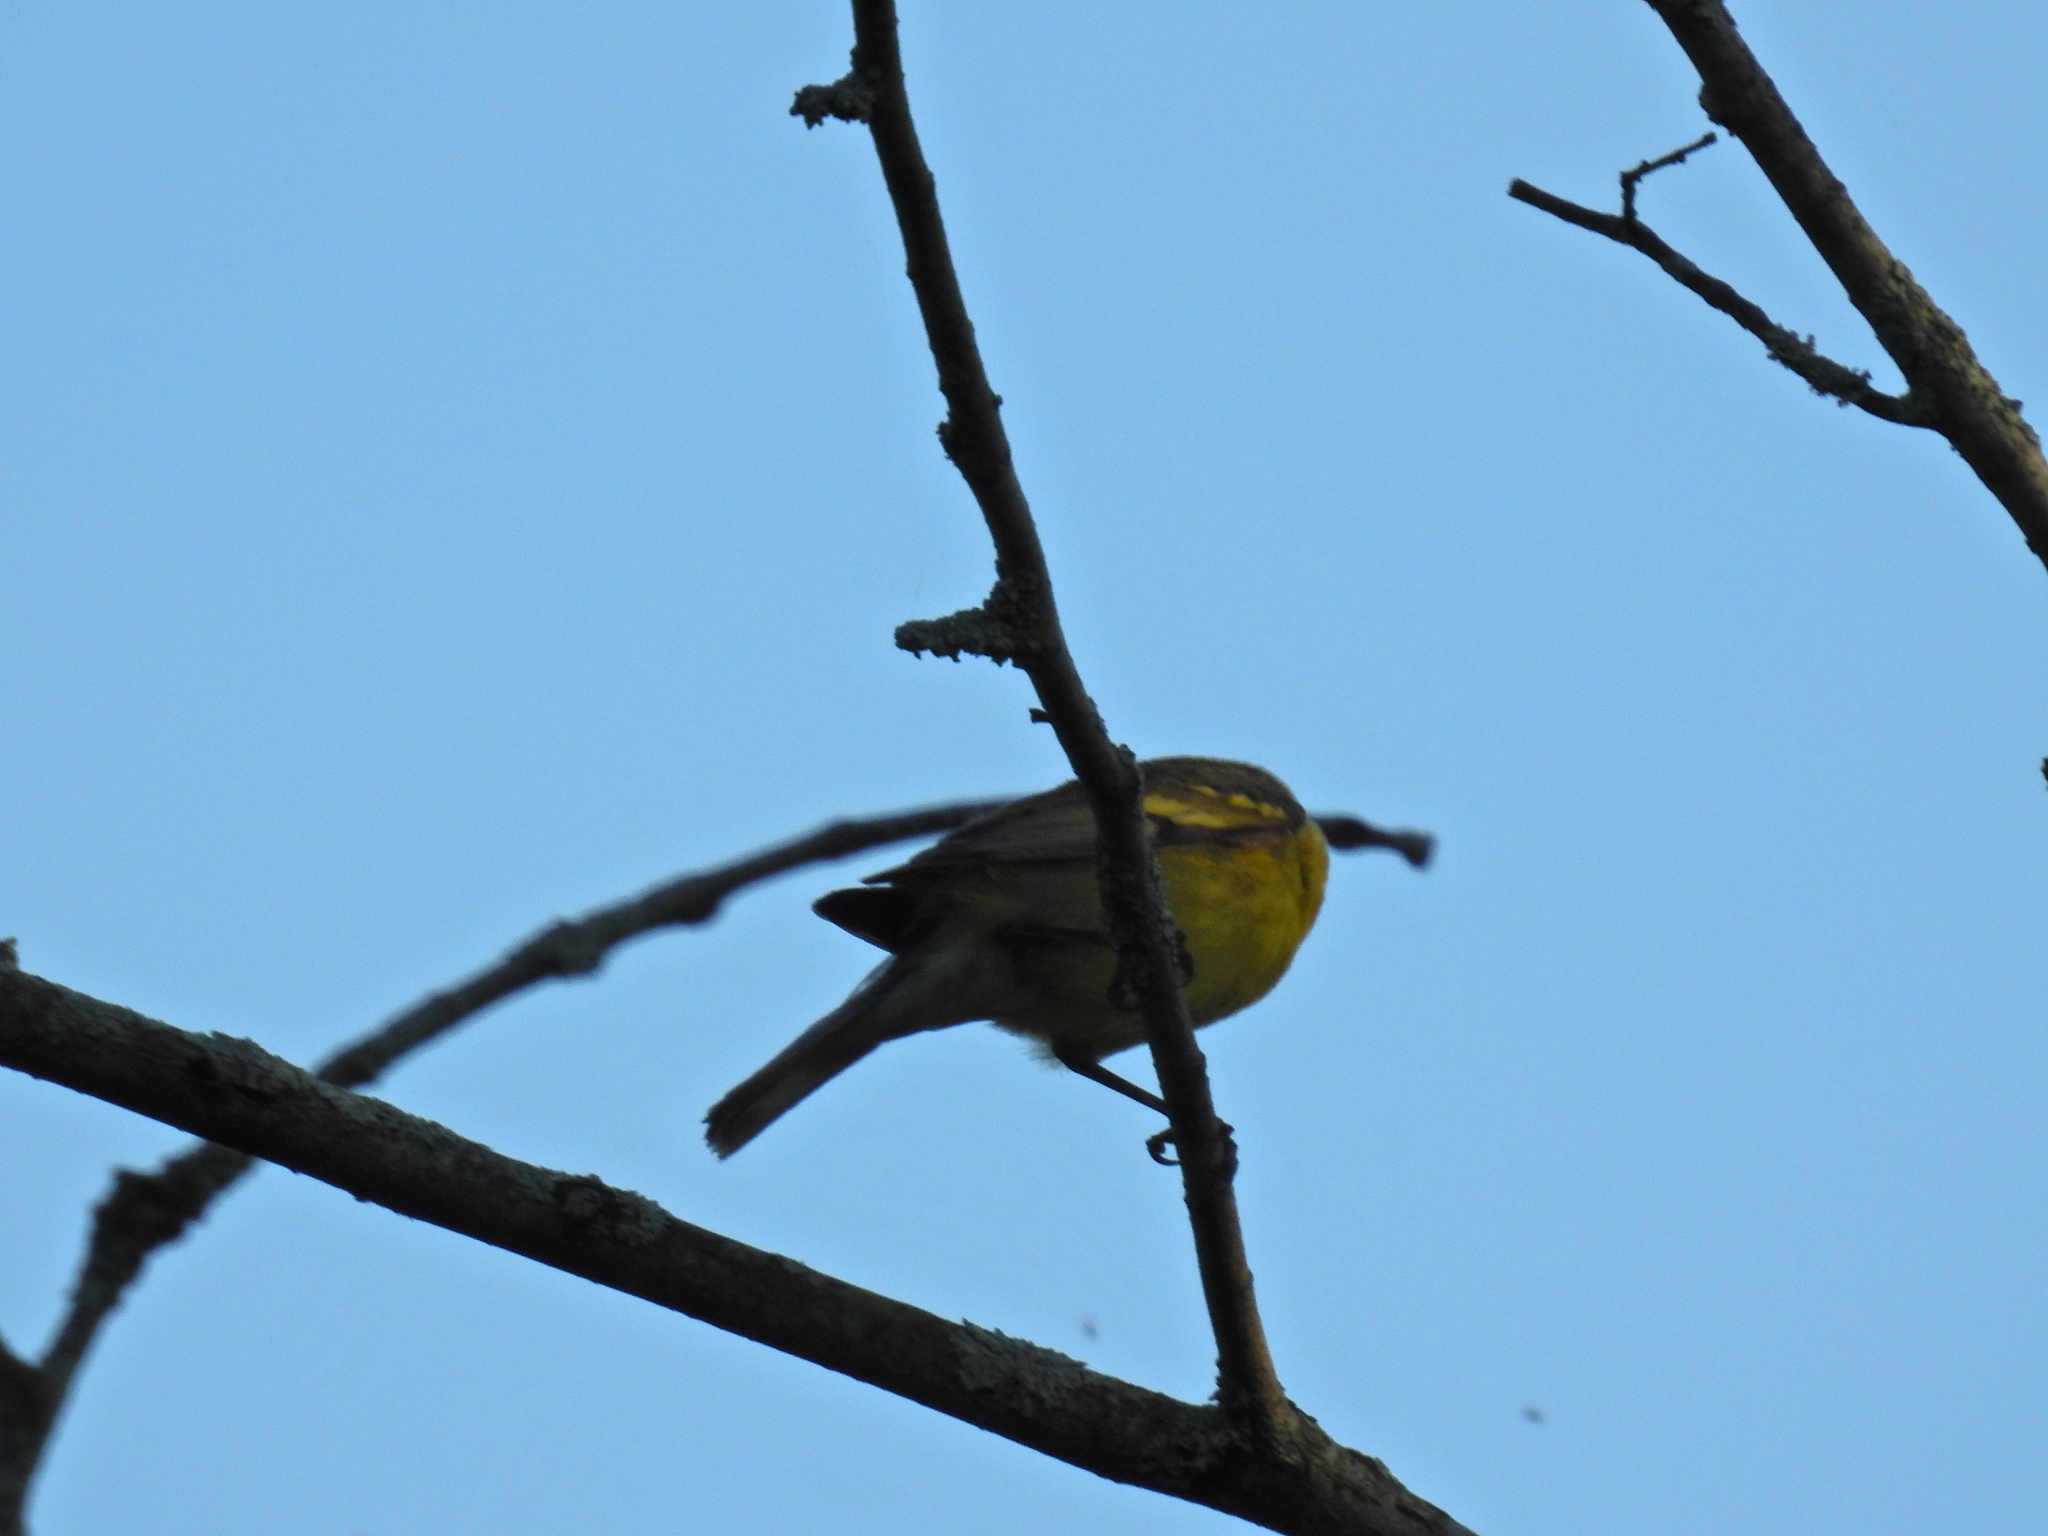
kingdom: Animalia
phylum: Chordata
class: Aves
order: Passeriformes
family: Parulidae
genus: Vermivora
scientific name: Vermivora cyanoptera
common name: Blue-winged warbler
